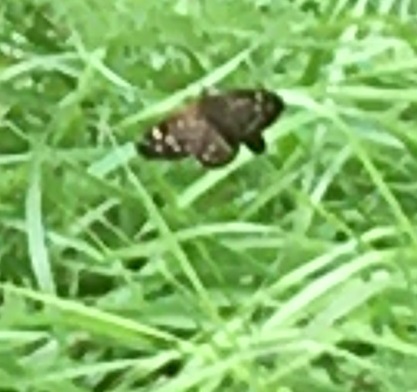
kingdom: Animalia
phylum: Arthropoda
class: Insecta
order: Lepidoptera
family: Nymphalidae
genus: Pararge
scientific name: Pararge aegeria
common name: Speckled wood
